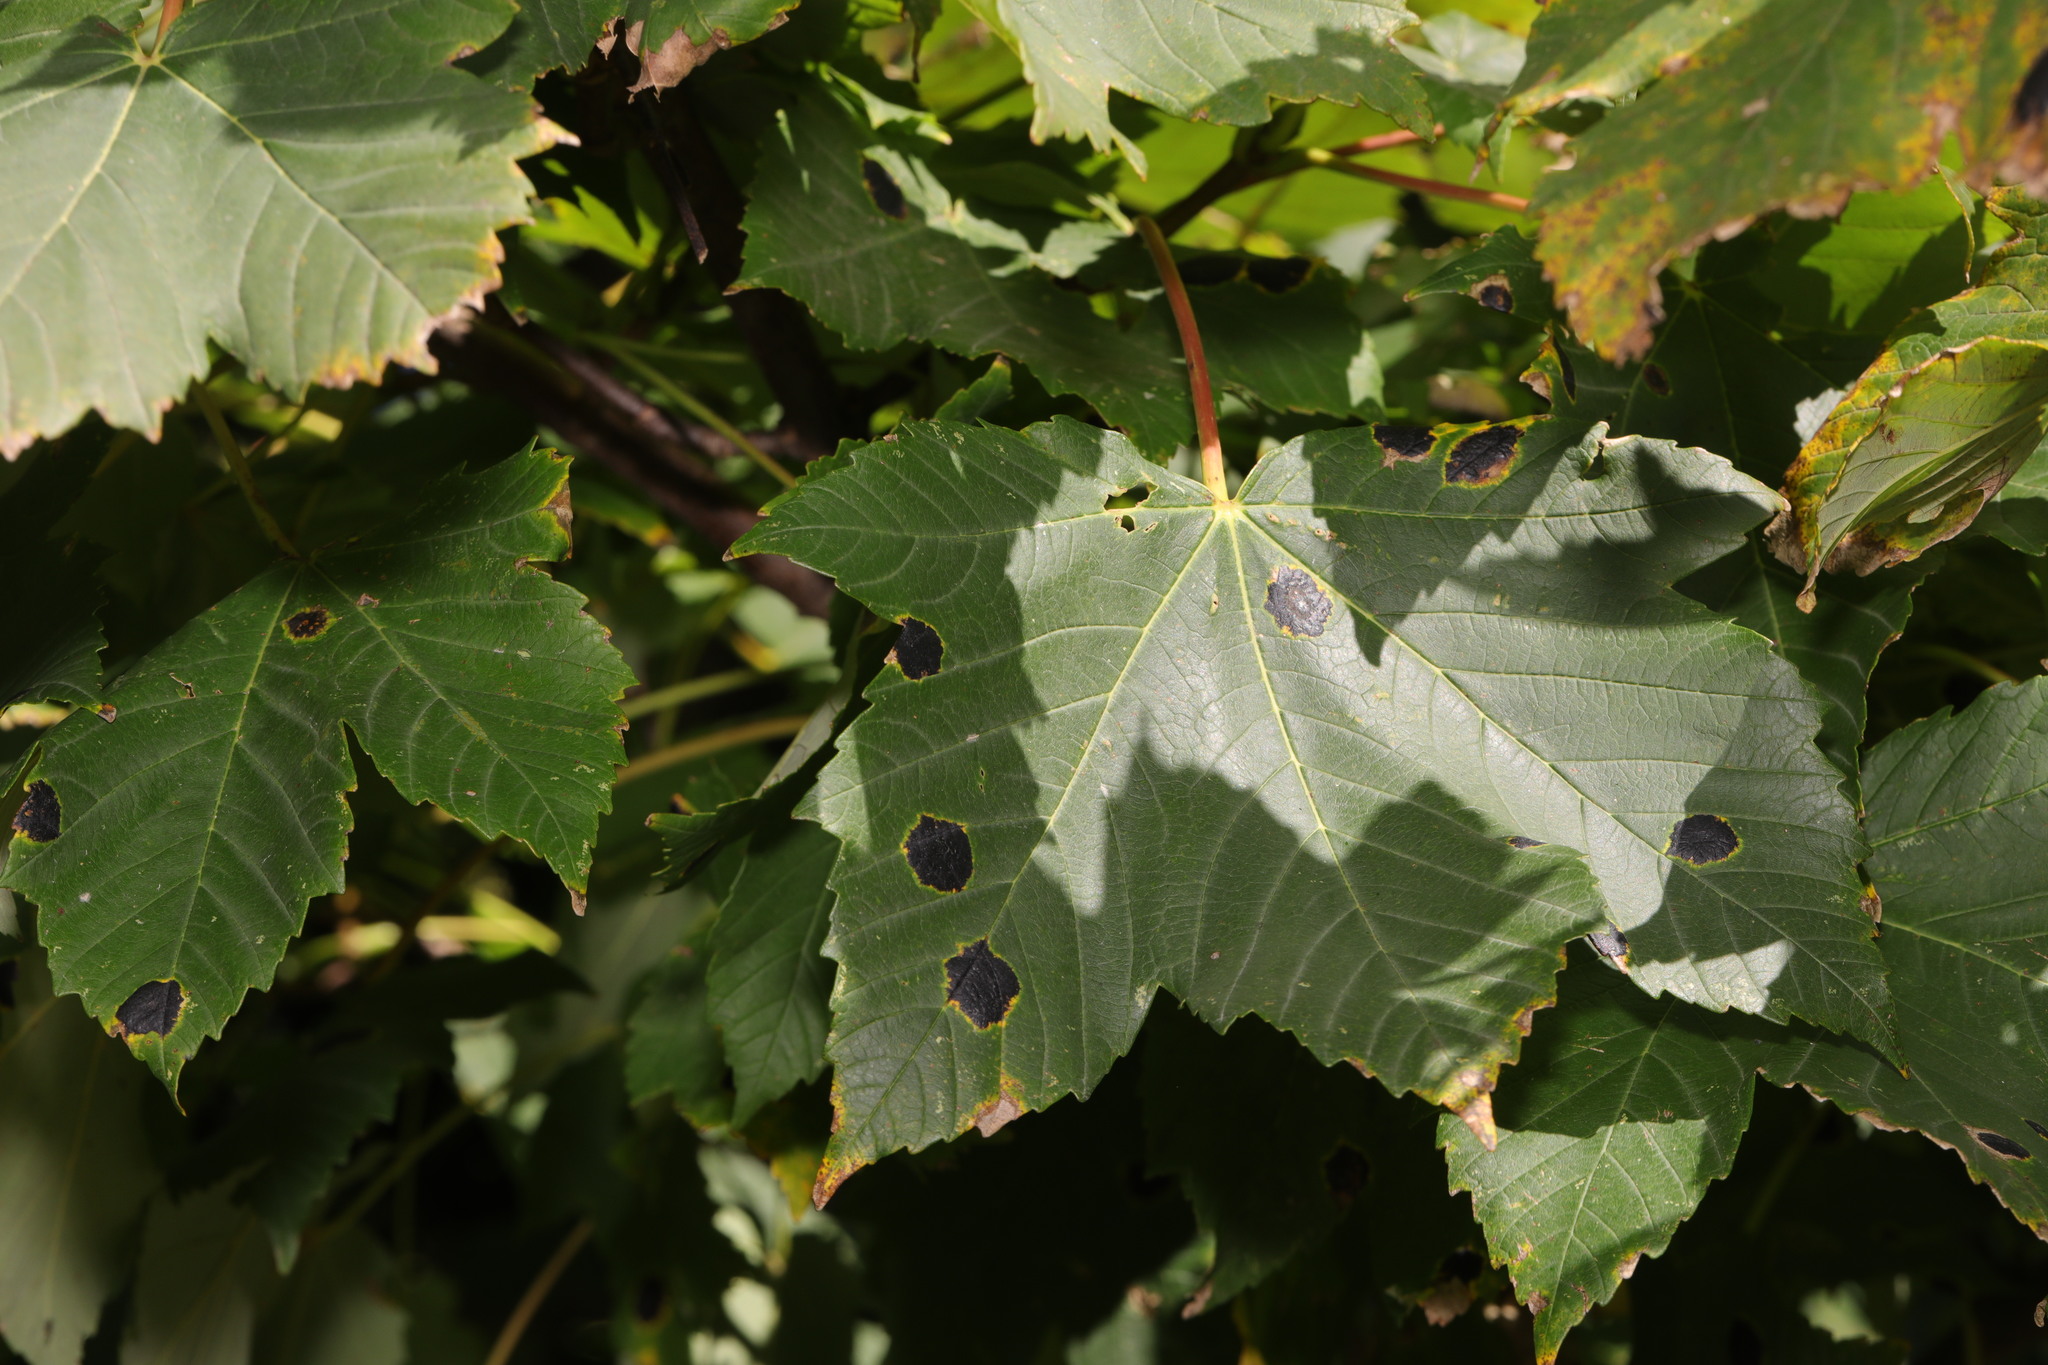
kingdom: Plantae
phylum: Tracheophyta
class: Magnoliopsida
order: Sapindales
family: Sapindaceae
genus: Acer
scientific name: Acer pseudoplatanus
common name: Sycamore
